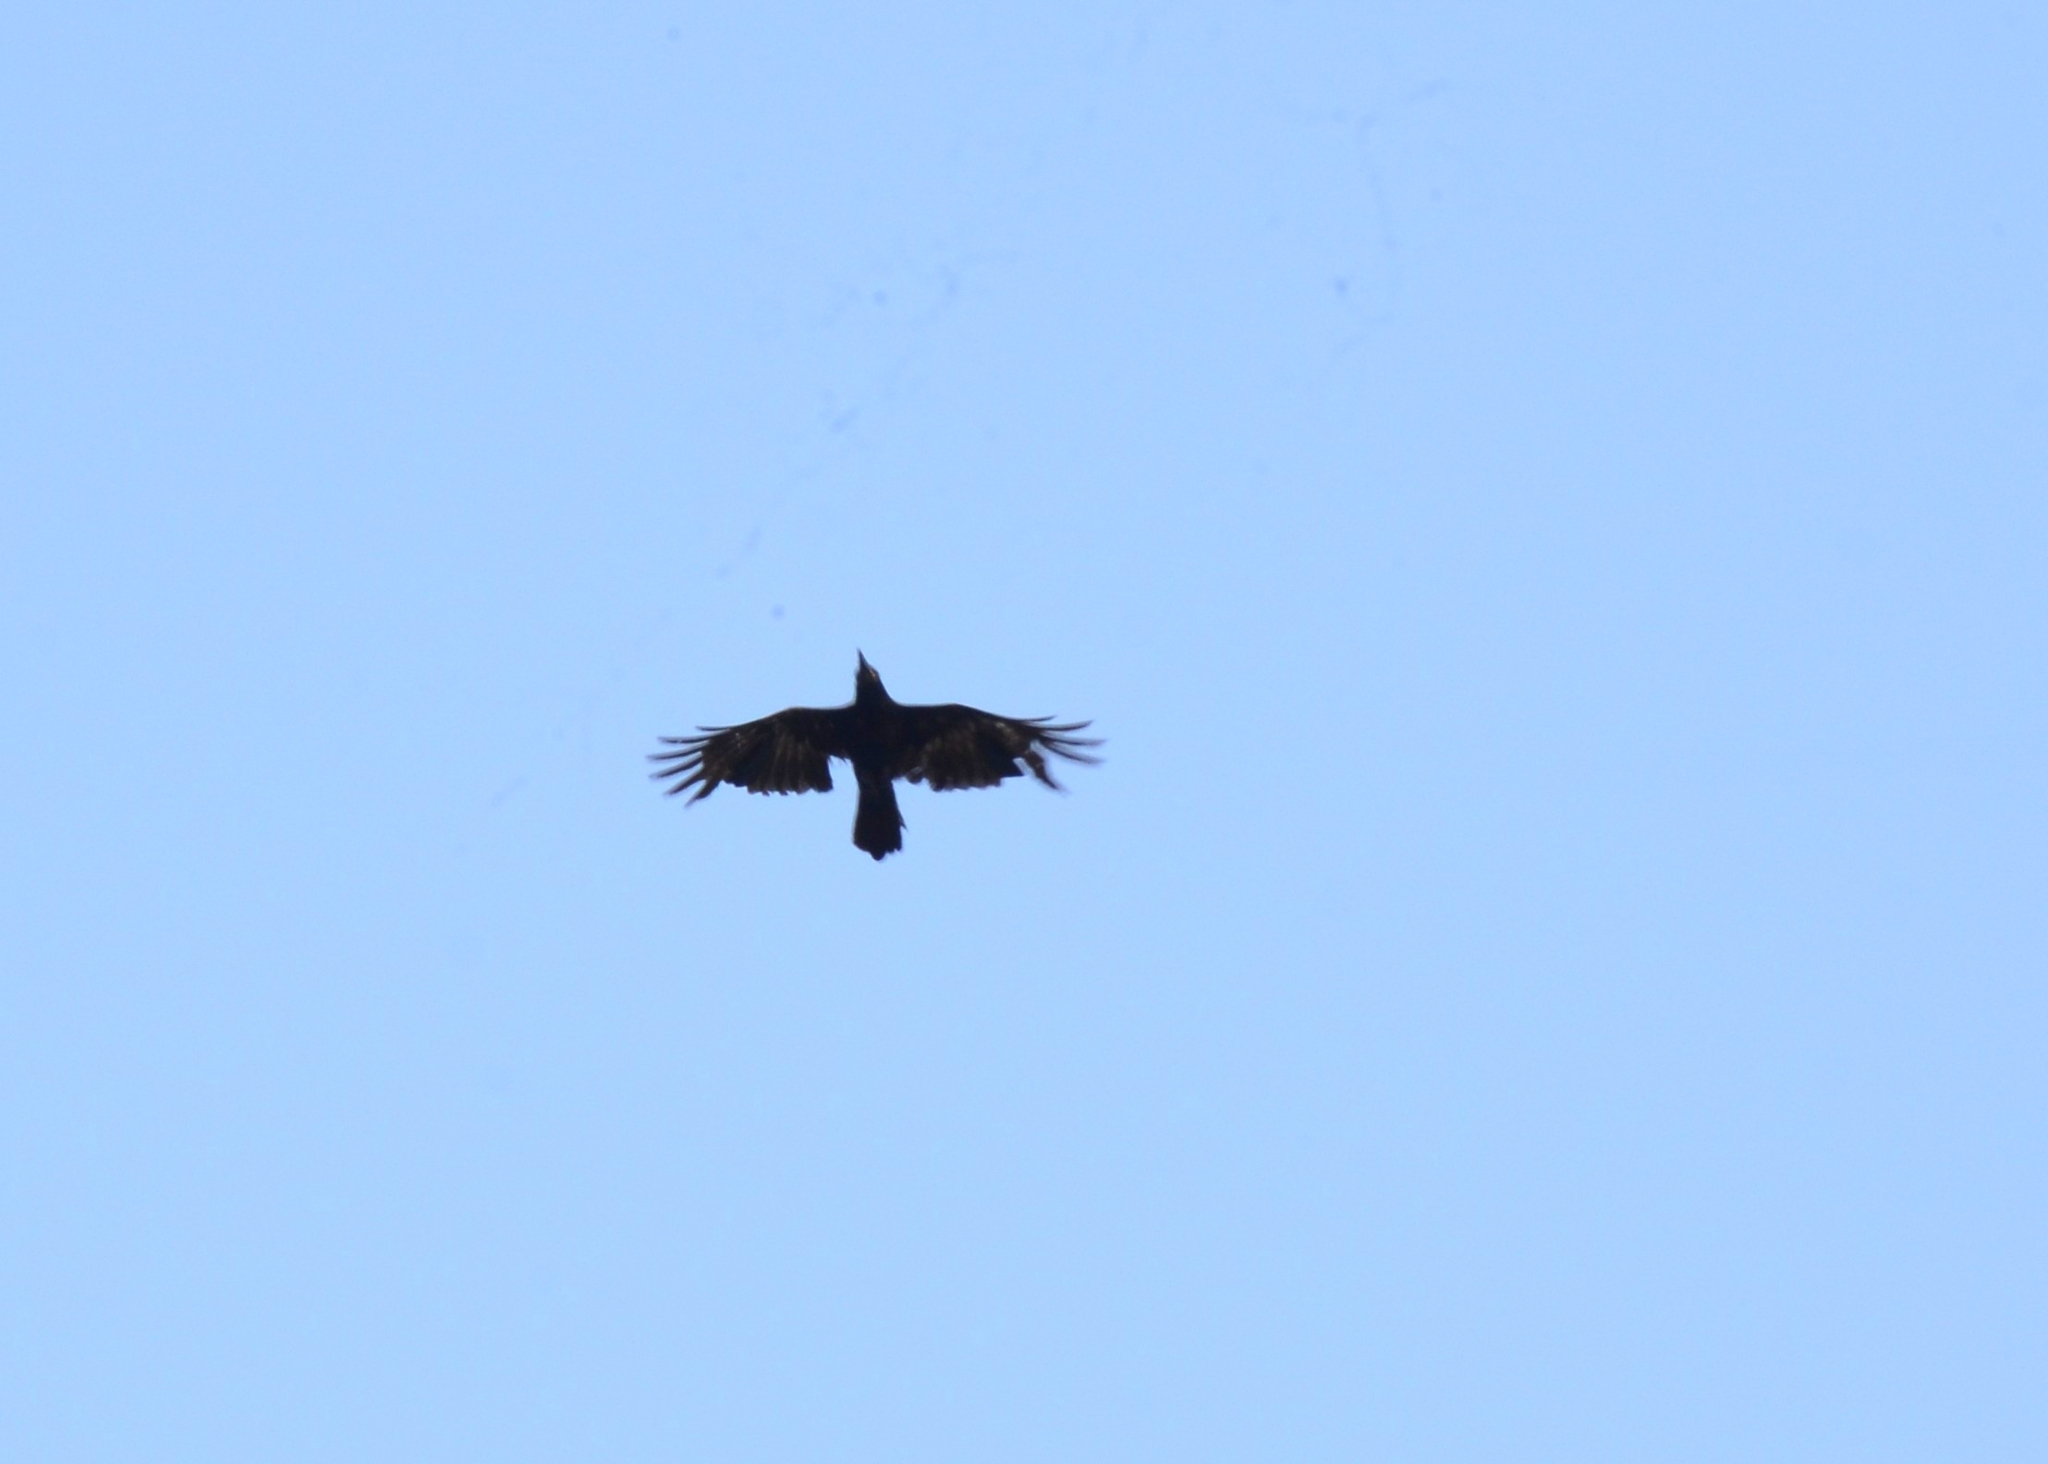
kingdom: Animalia
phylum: Chordata
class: Aves
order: Passeriformes
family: Corvidae
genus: Corvus
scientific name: Corvus macrorhynchos
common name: Large-billed crow
